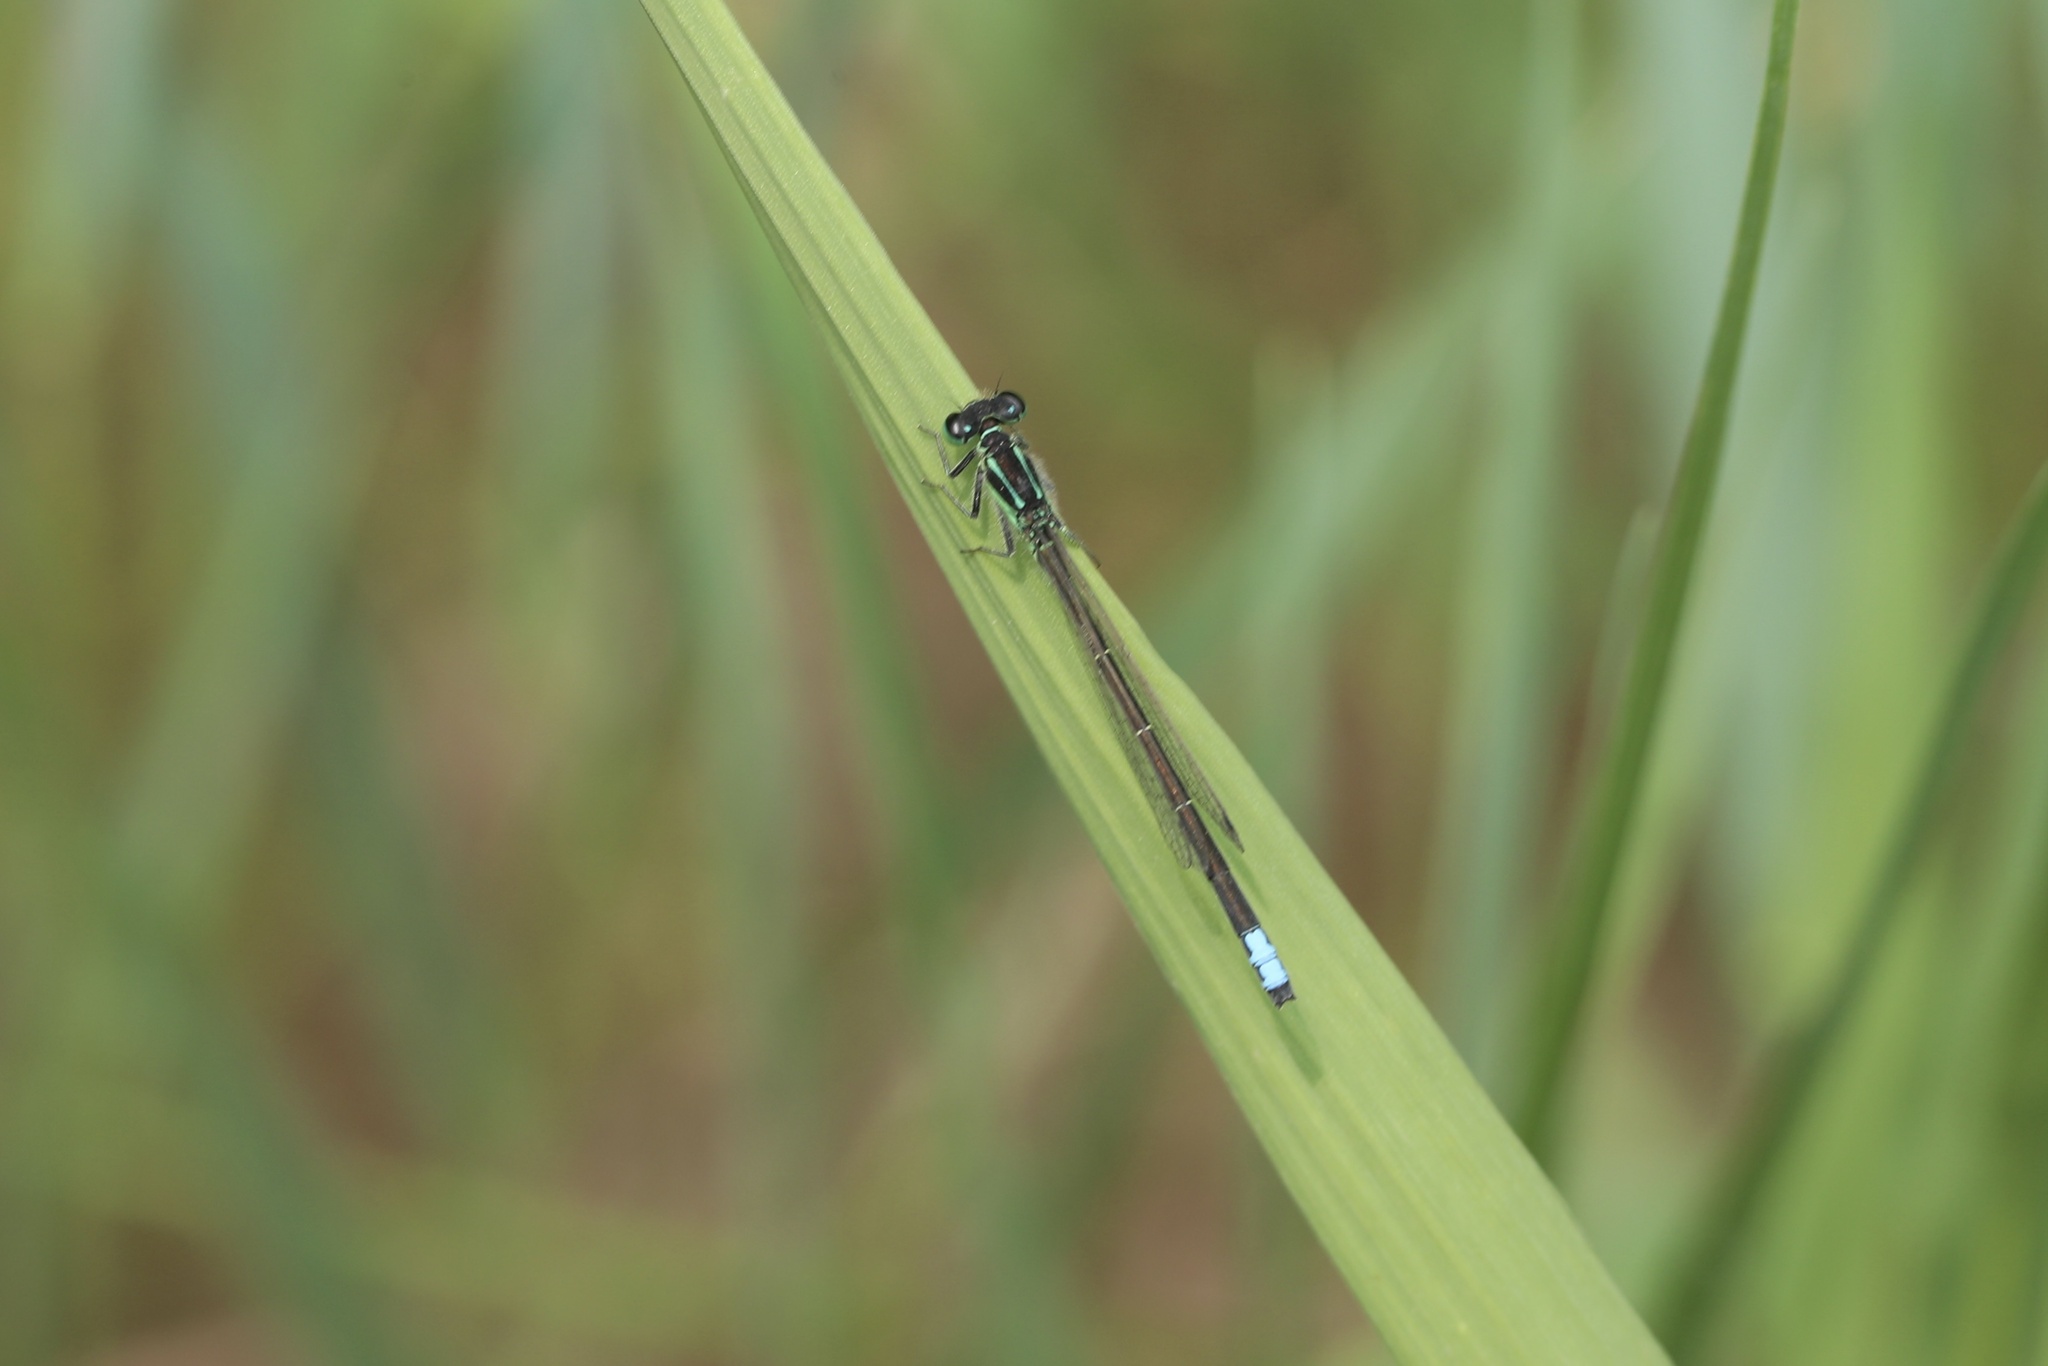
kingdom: Animalia
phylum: Arthropoda
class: Insecta
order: Odonata
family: Coenagrionidae
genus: Ischnura
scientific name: Ischnura verticalis
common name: Eastern forktail
